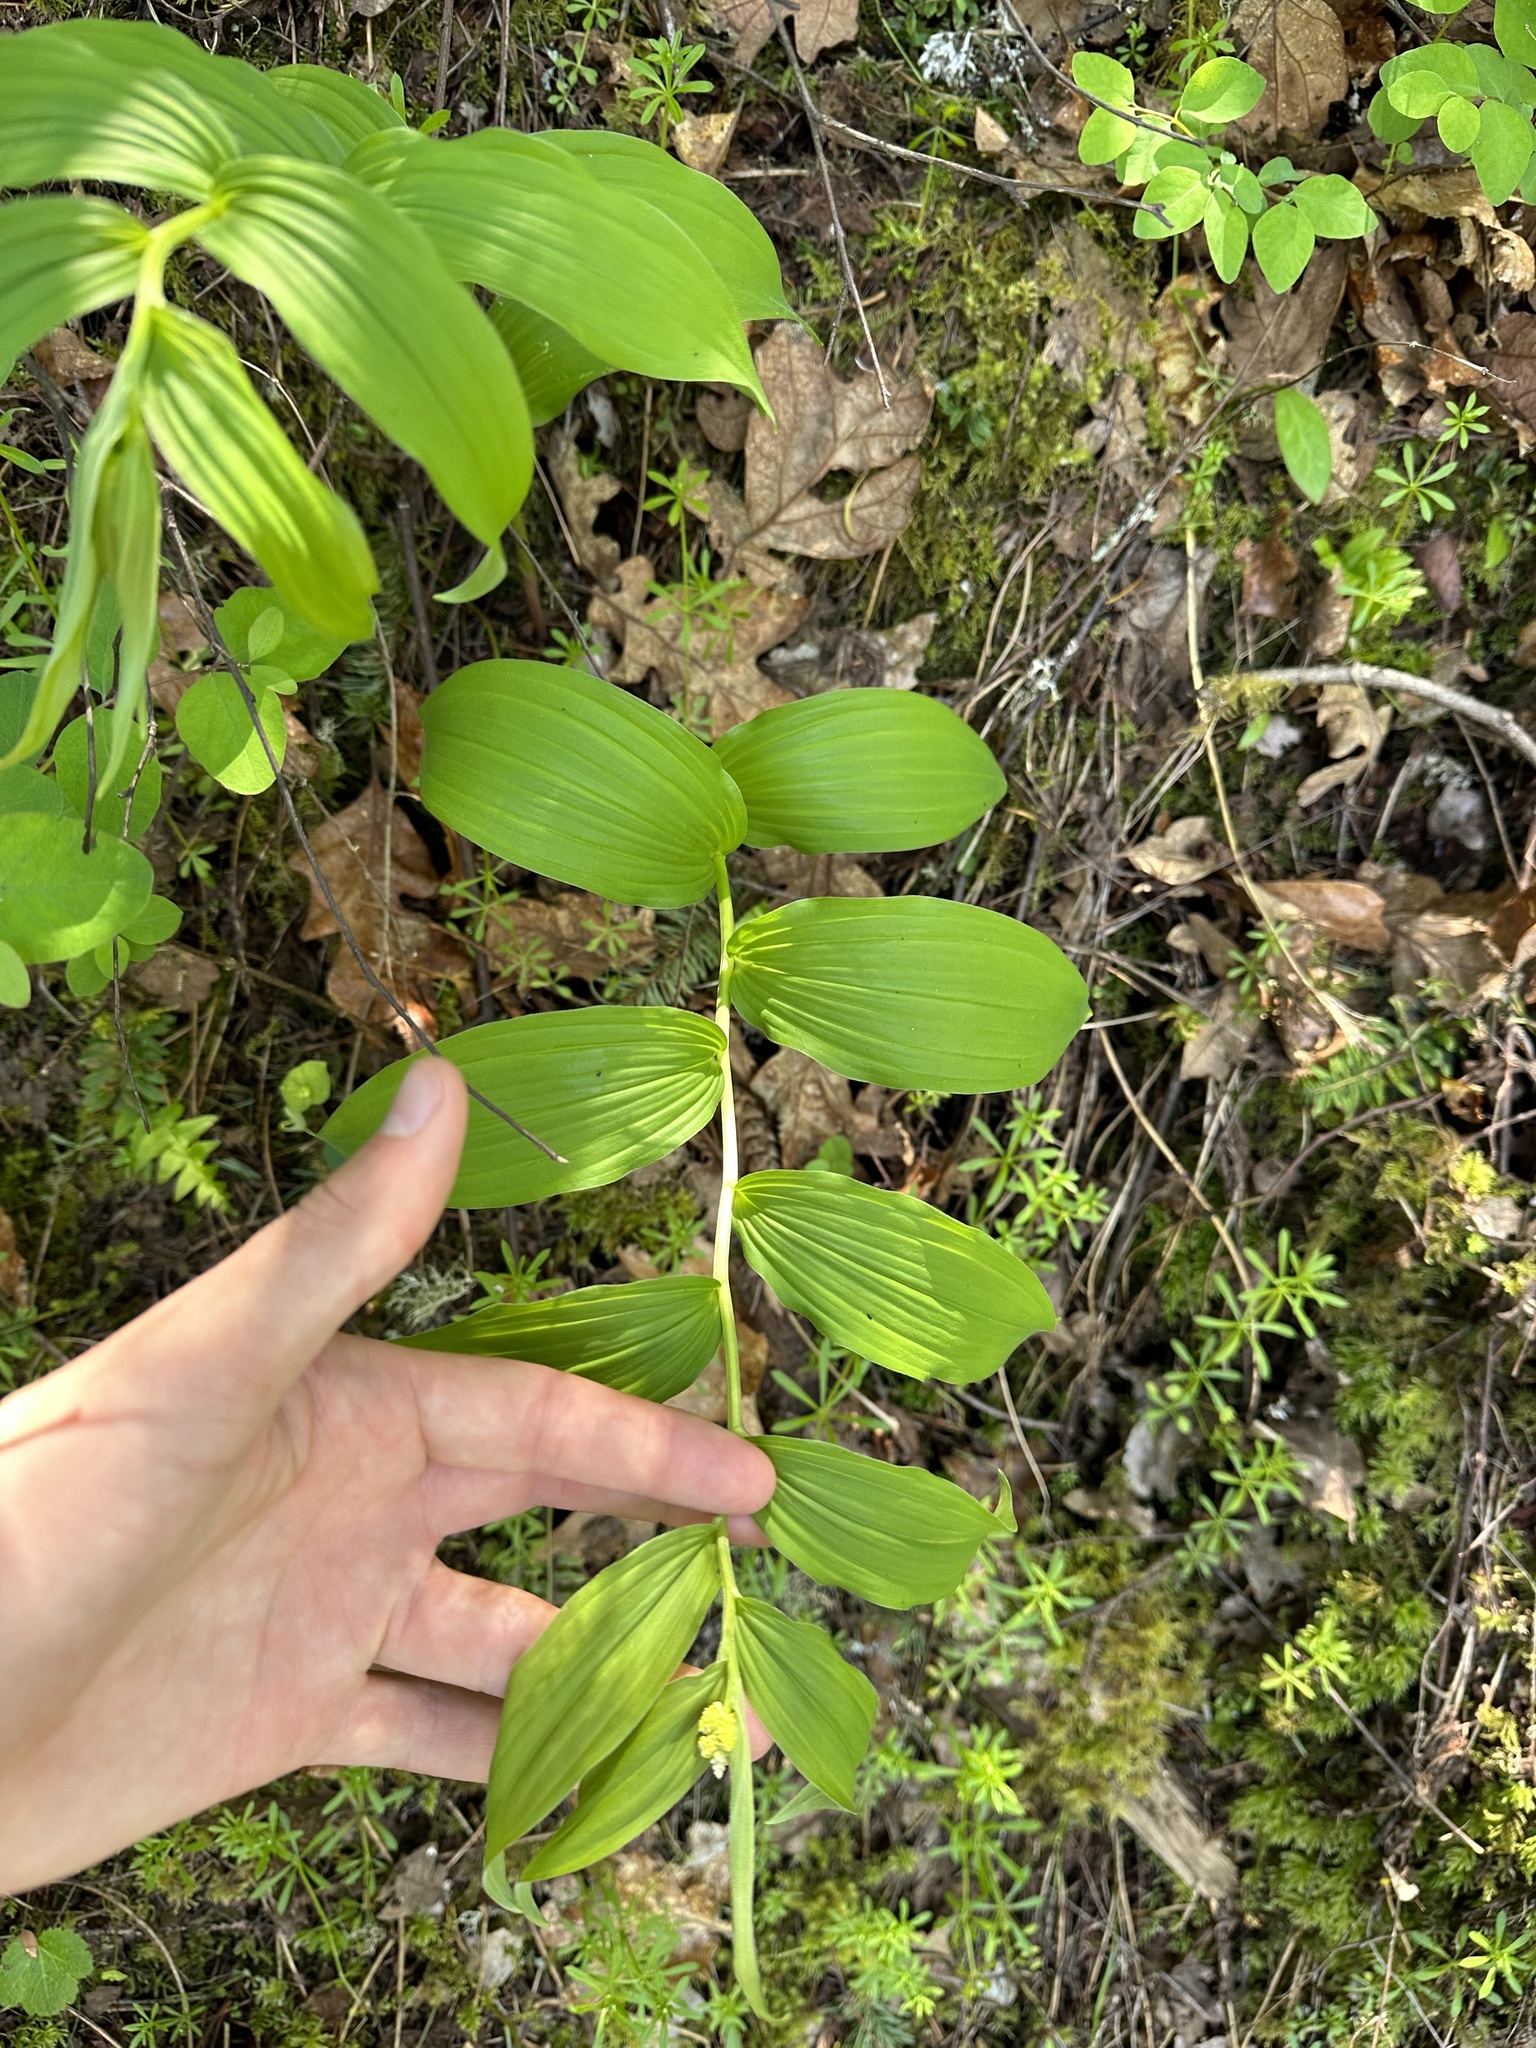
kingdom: Plantae
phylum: Tracheophyta
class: Liliopsida
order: Asparagales
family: Asparagaceae
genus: Maianthemum
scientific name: Maianthemum racemosum
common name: False spikenard
